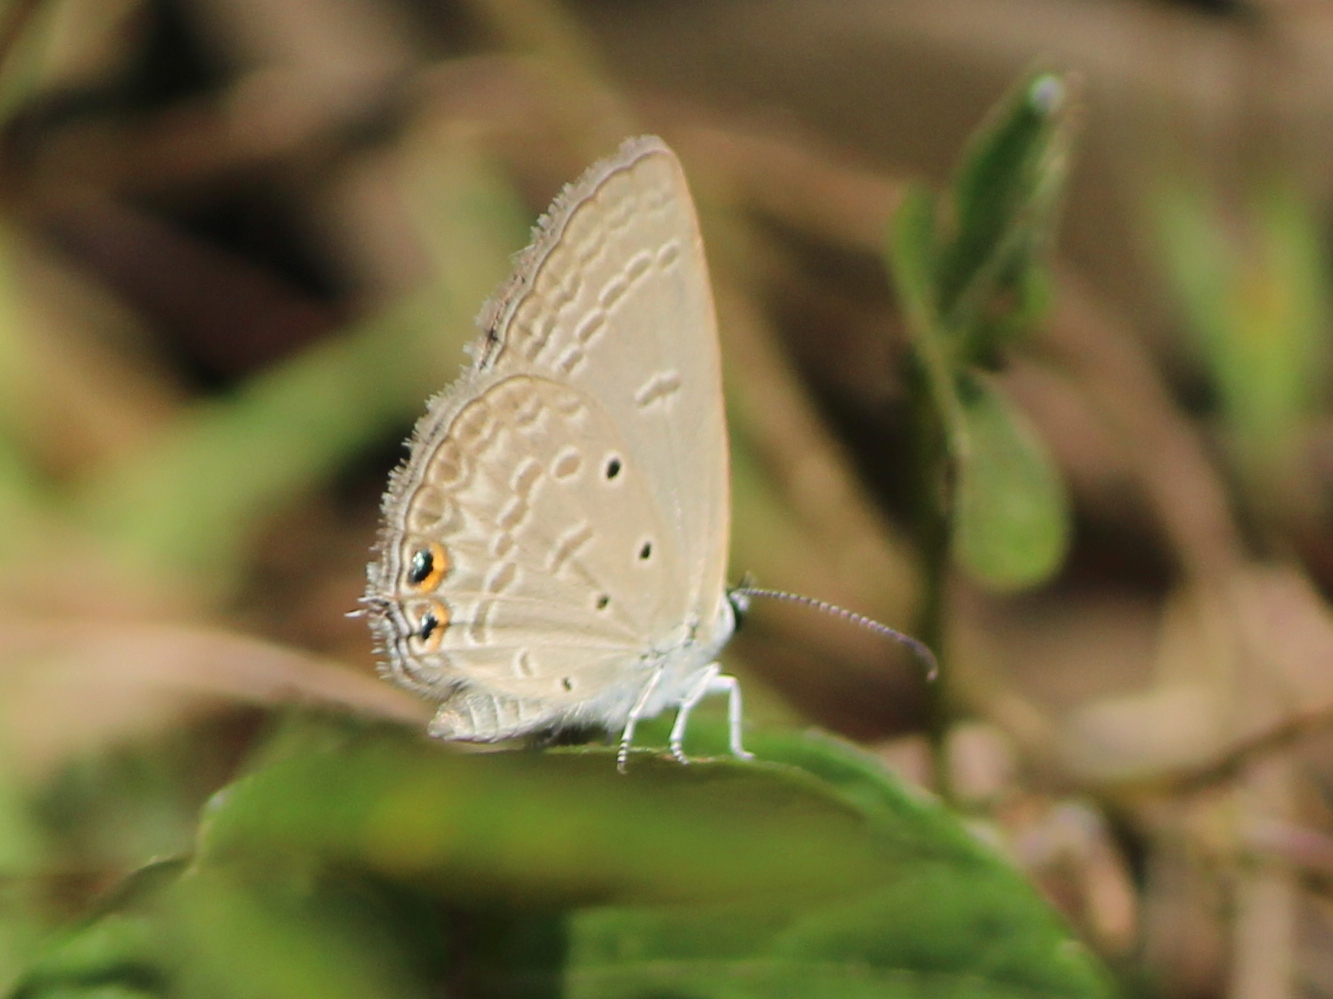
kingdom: Animalia
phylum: Arthropoda
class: Insecta
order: Lepidoptera
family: Lycaenidae
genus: Euchrysops
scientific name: Euchrysops cnejus
